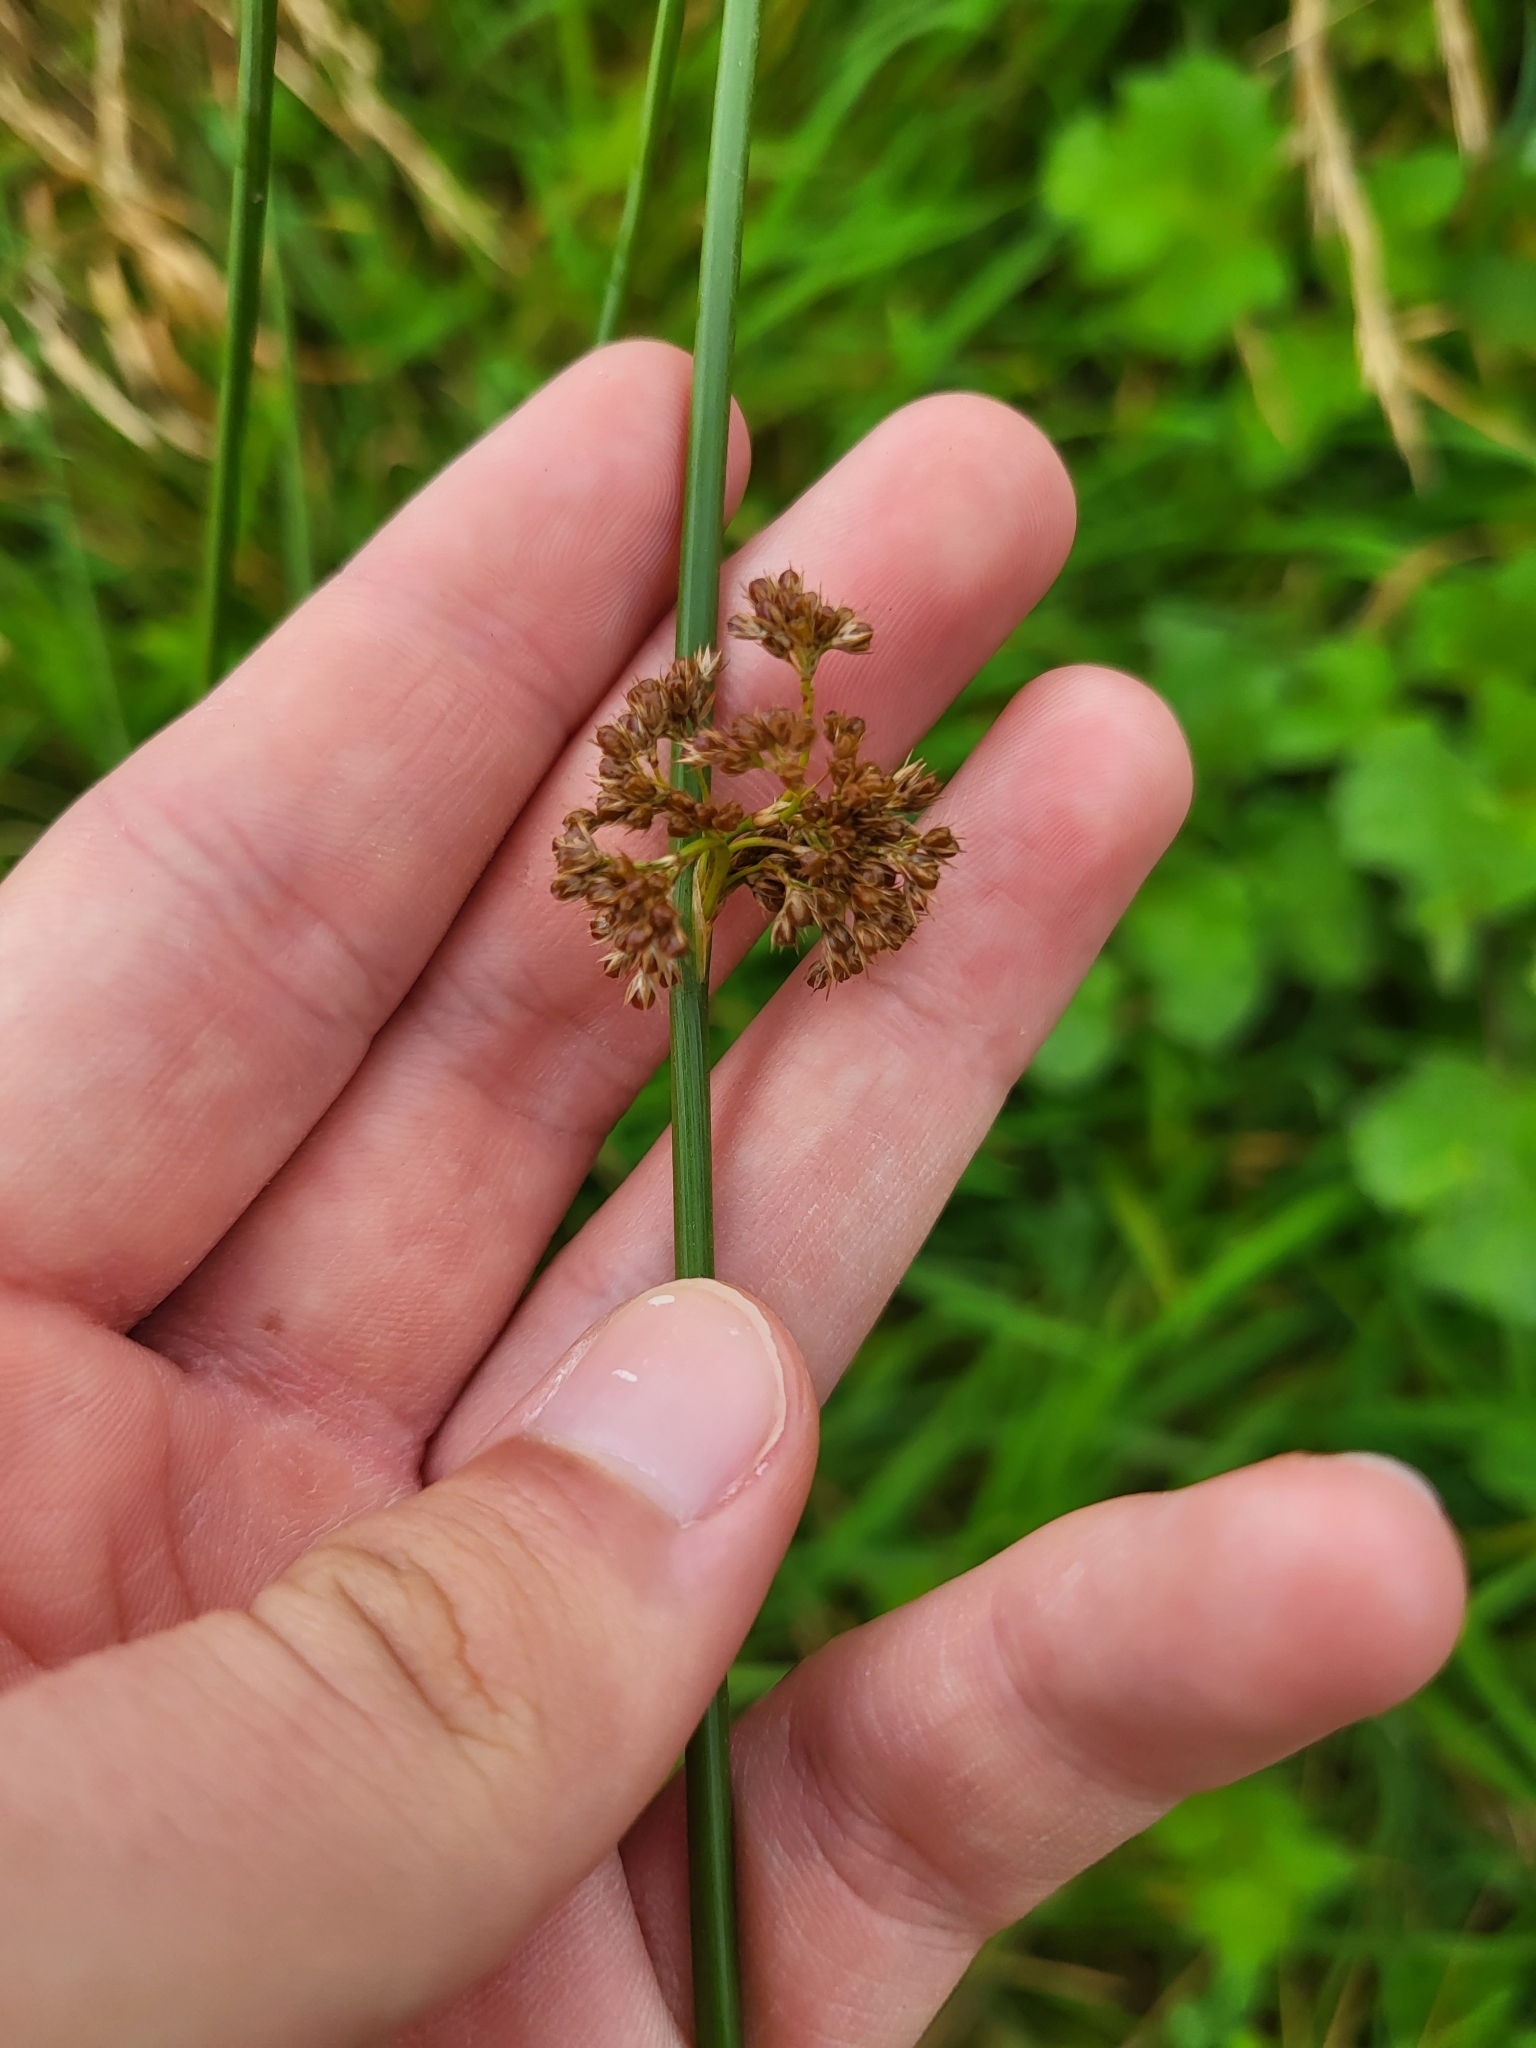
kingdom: Plantae
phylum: Tracheophyta
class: Liliopsida
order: Poales
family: Juncaceae
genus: Juncus
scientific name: Juncus effusus
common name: Soft rush
